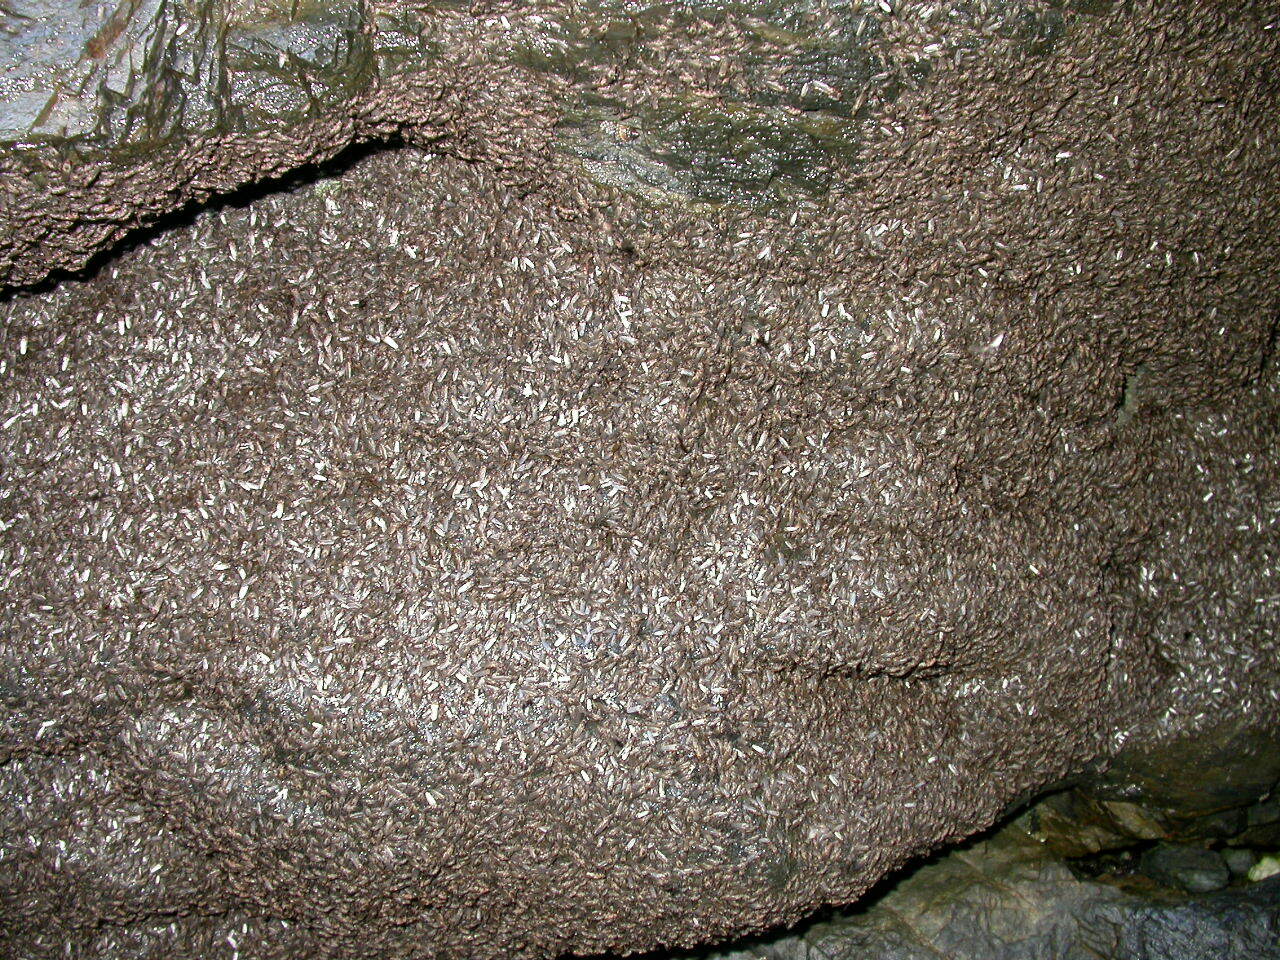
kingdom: Animalia
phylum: Arthropoda
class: Insecta
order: Diptera
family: Coelopidae
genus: Chaetocoelopa
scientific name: Chaetocoelopa sydneyensis
